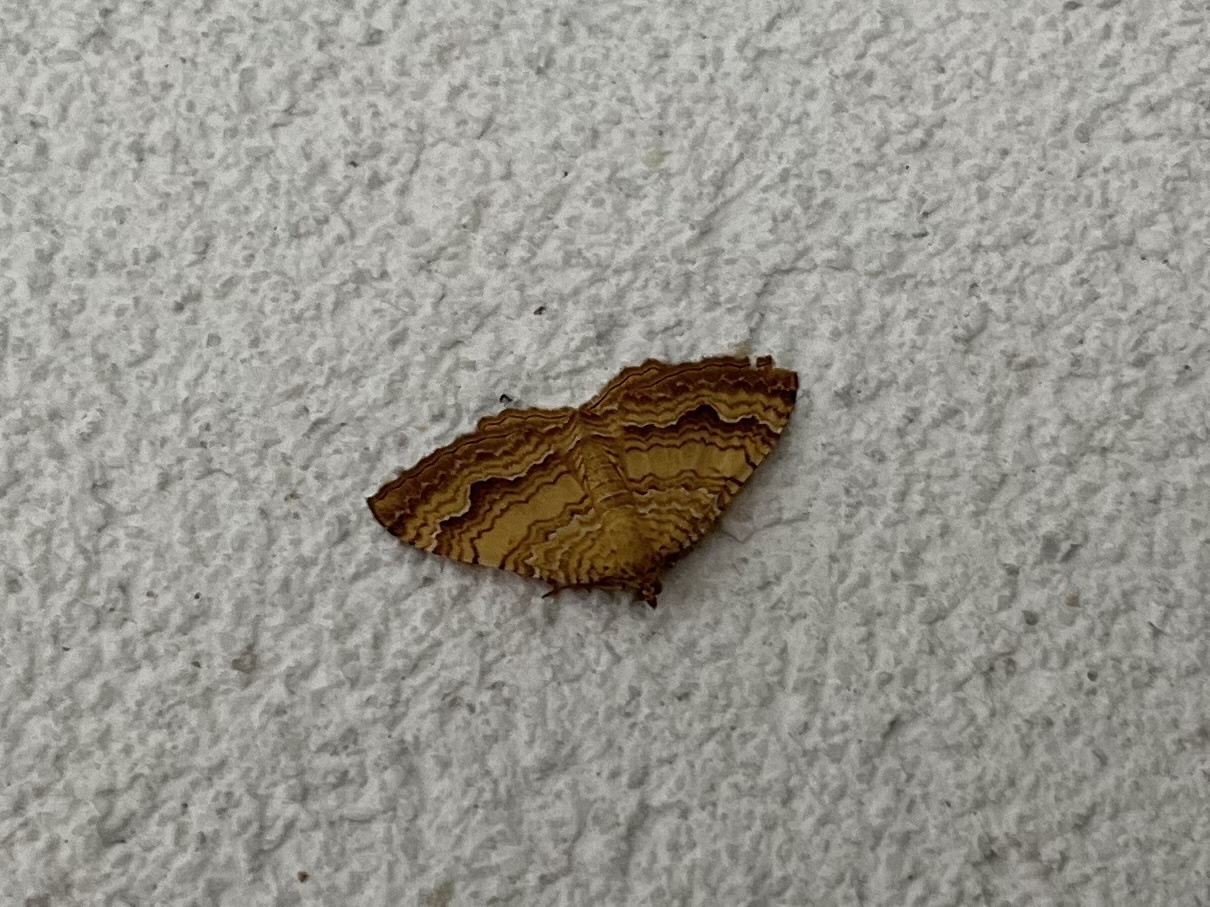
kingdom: Animalia
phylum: Arthropoda
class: Insecta
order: Lepidoptera
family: Geometridae
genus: Camptogramma
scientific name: Camptogramma bilineata
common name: Yellow shell
